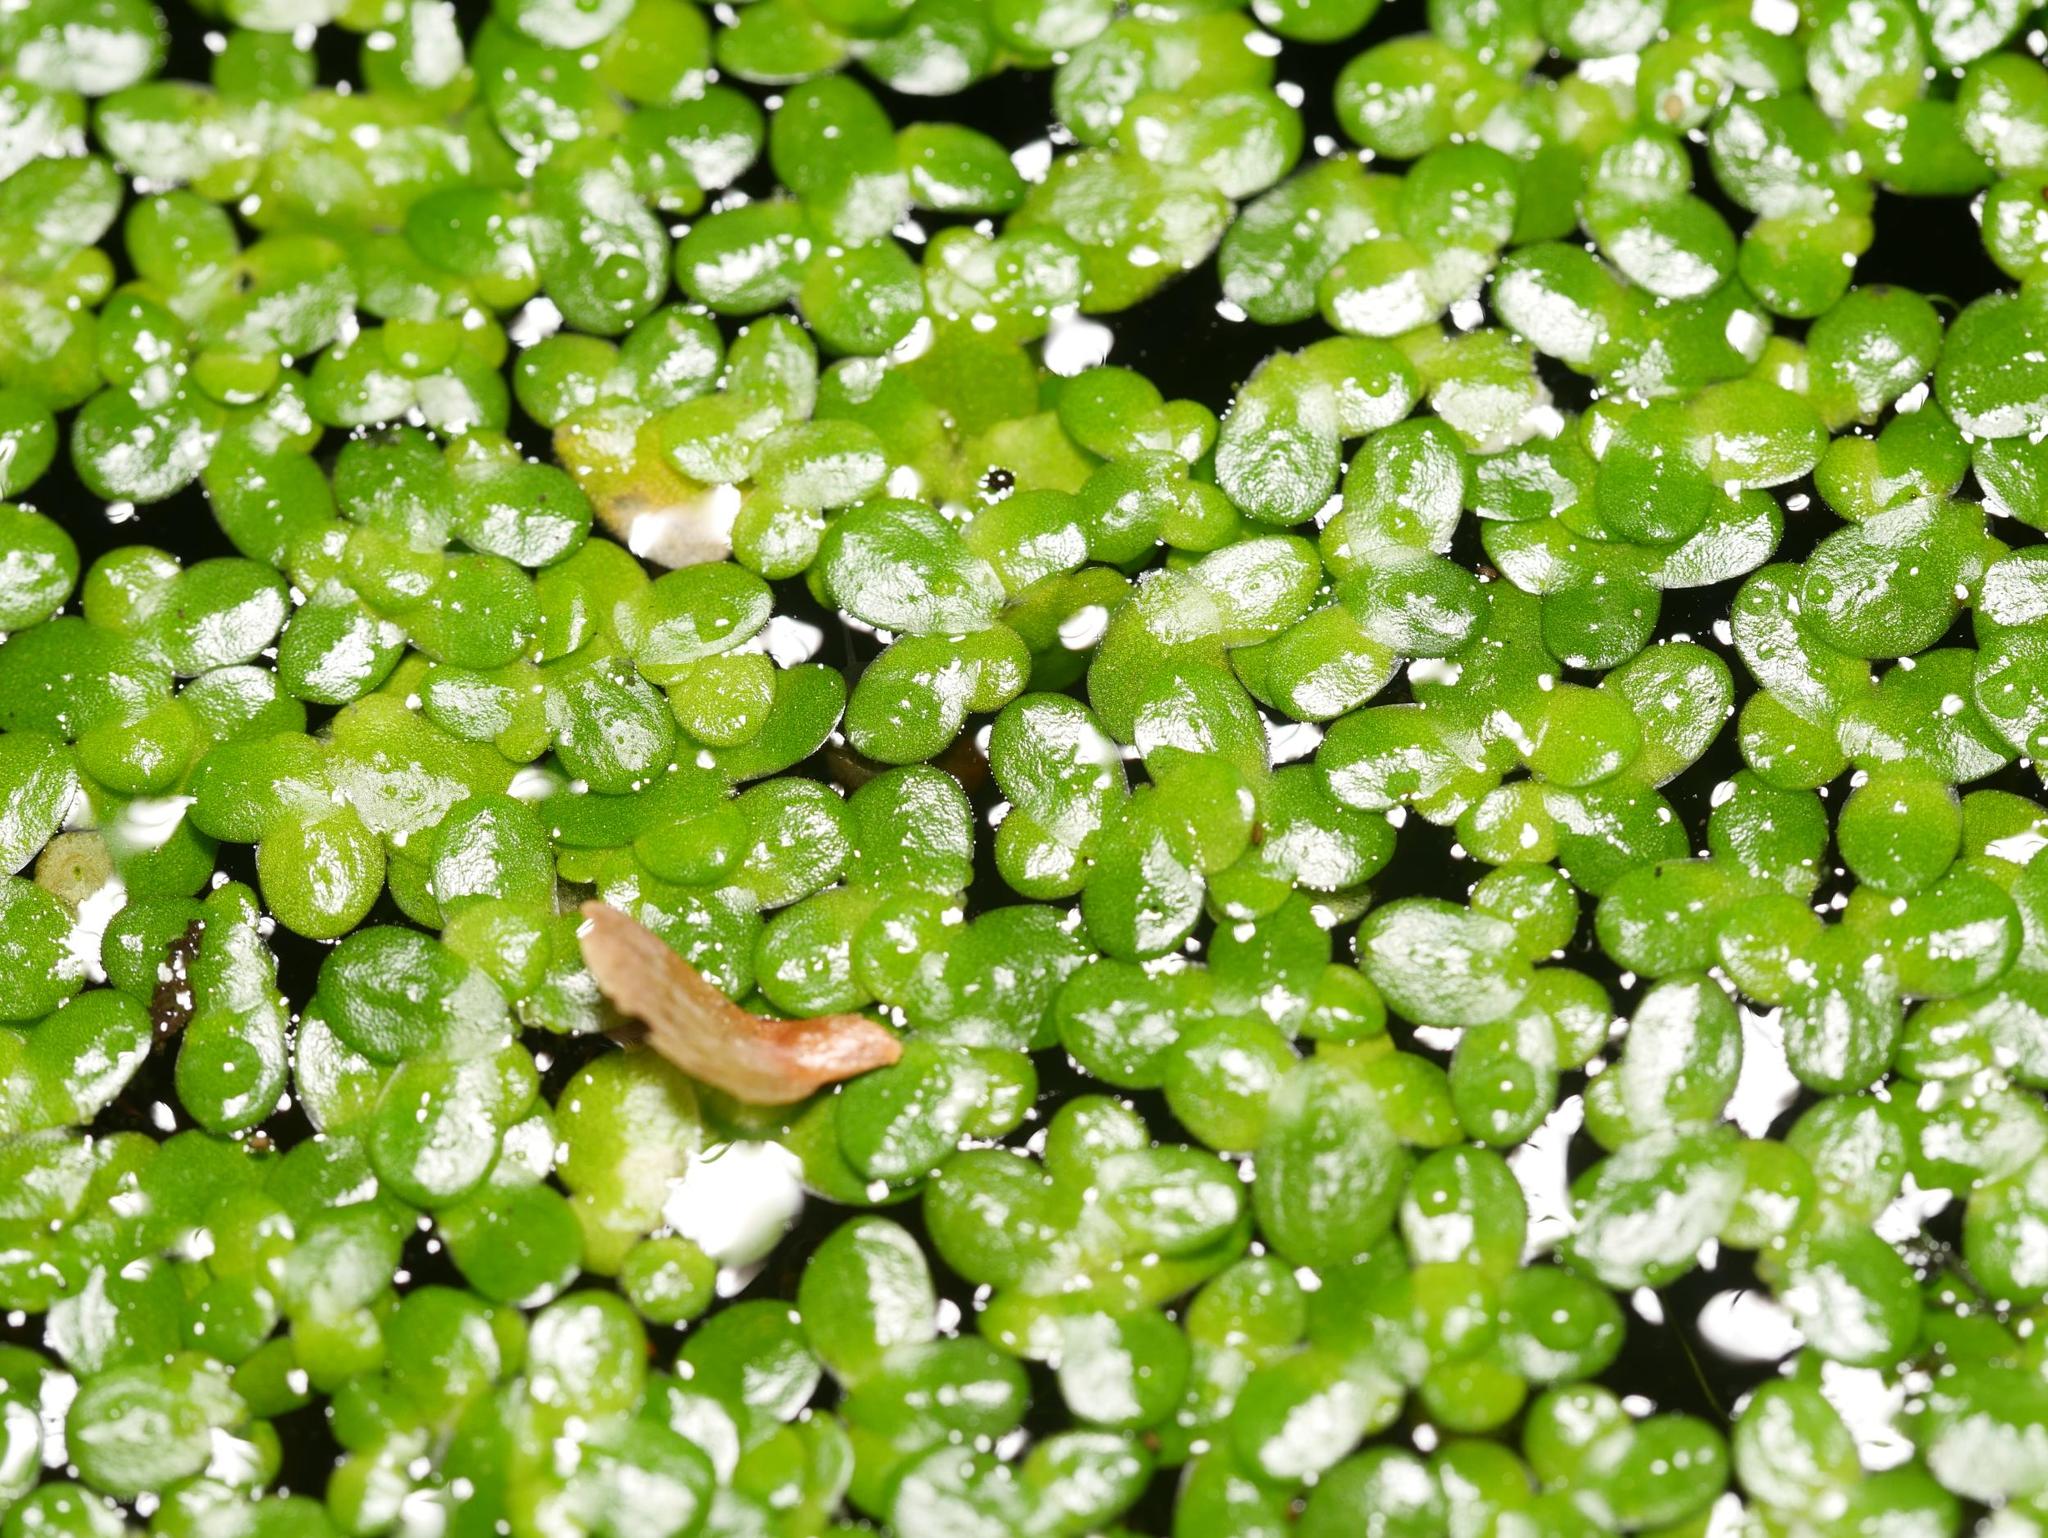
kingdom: Plantae
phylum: Tracheophyta
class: Liliopsida
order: Alismatales
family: Araceae
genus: Lemna
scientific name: Lemna minor
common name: Common duckweed
